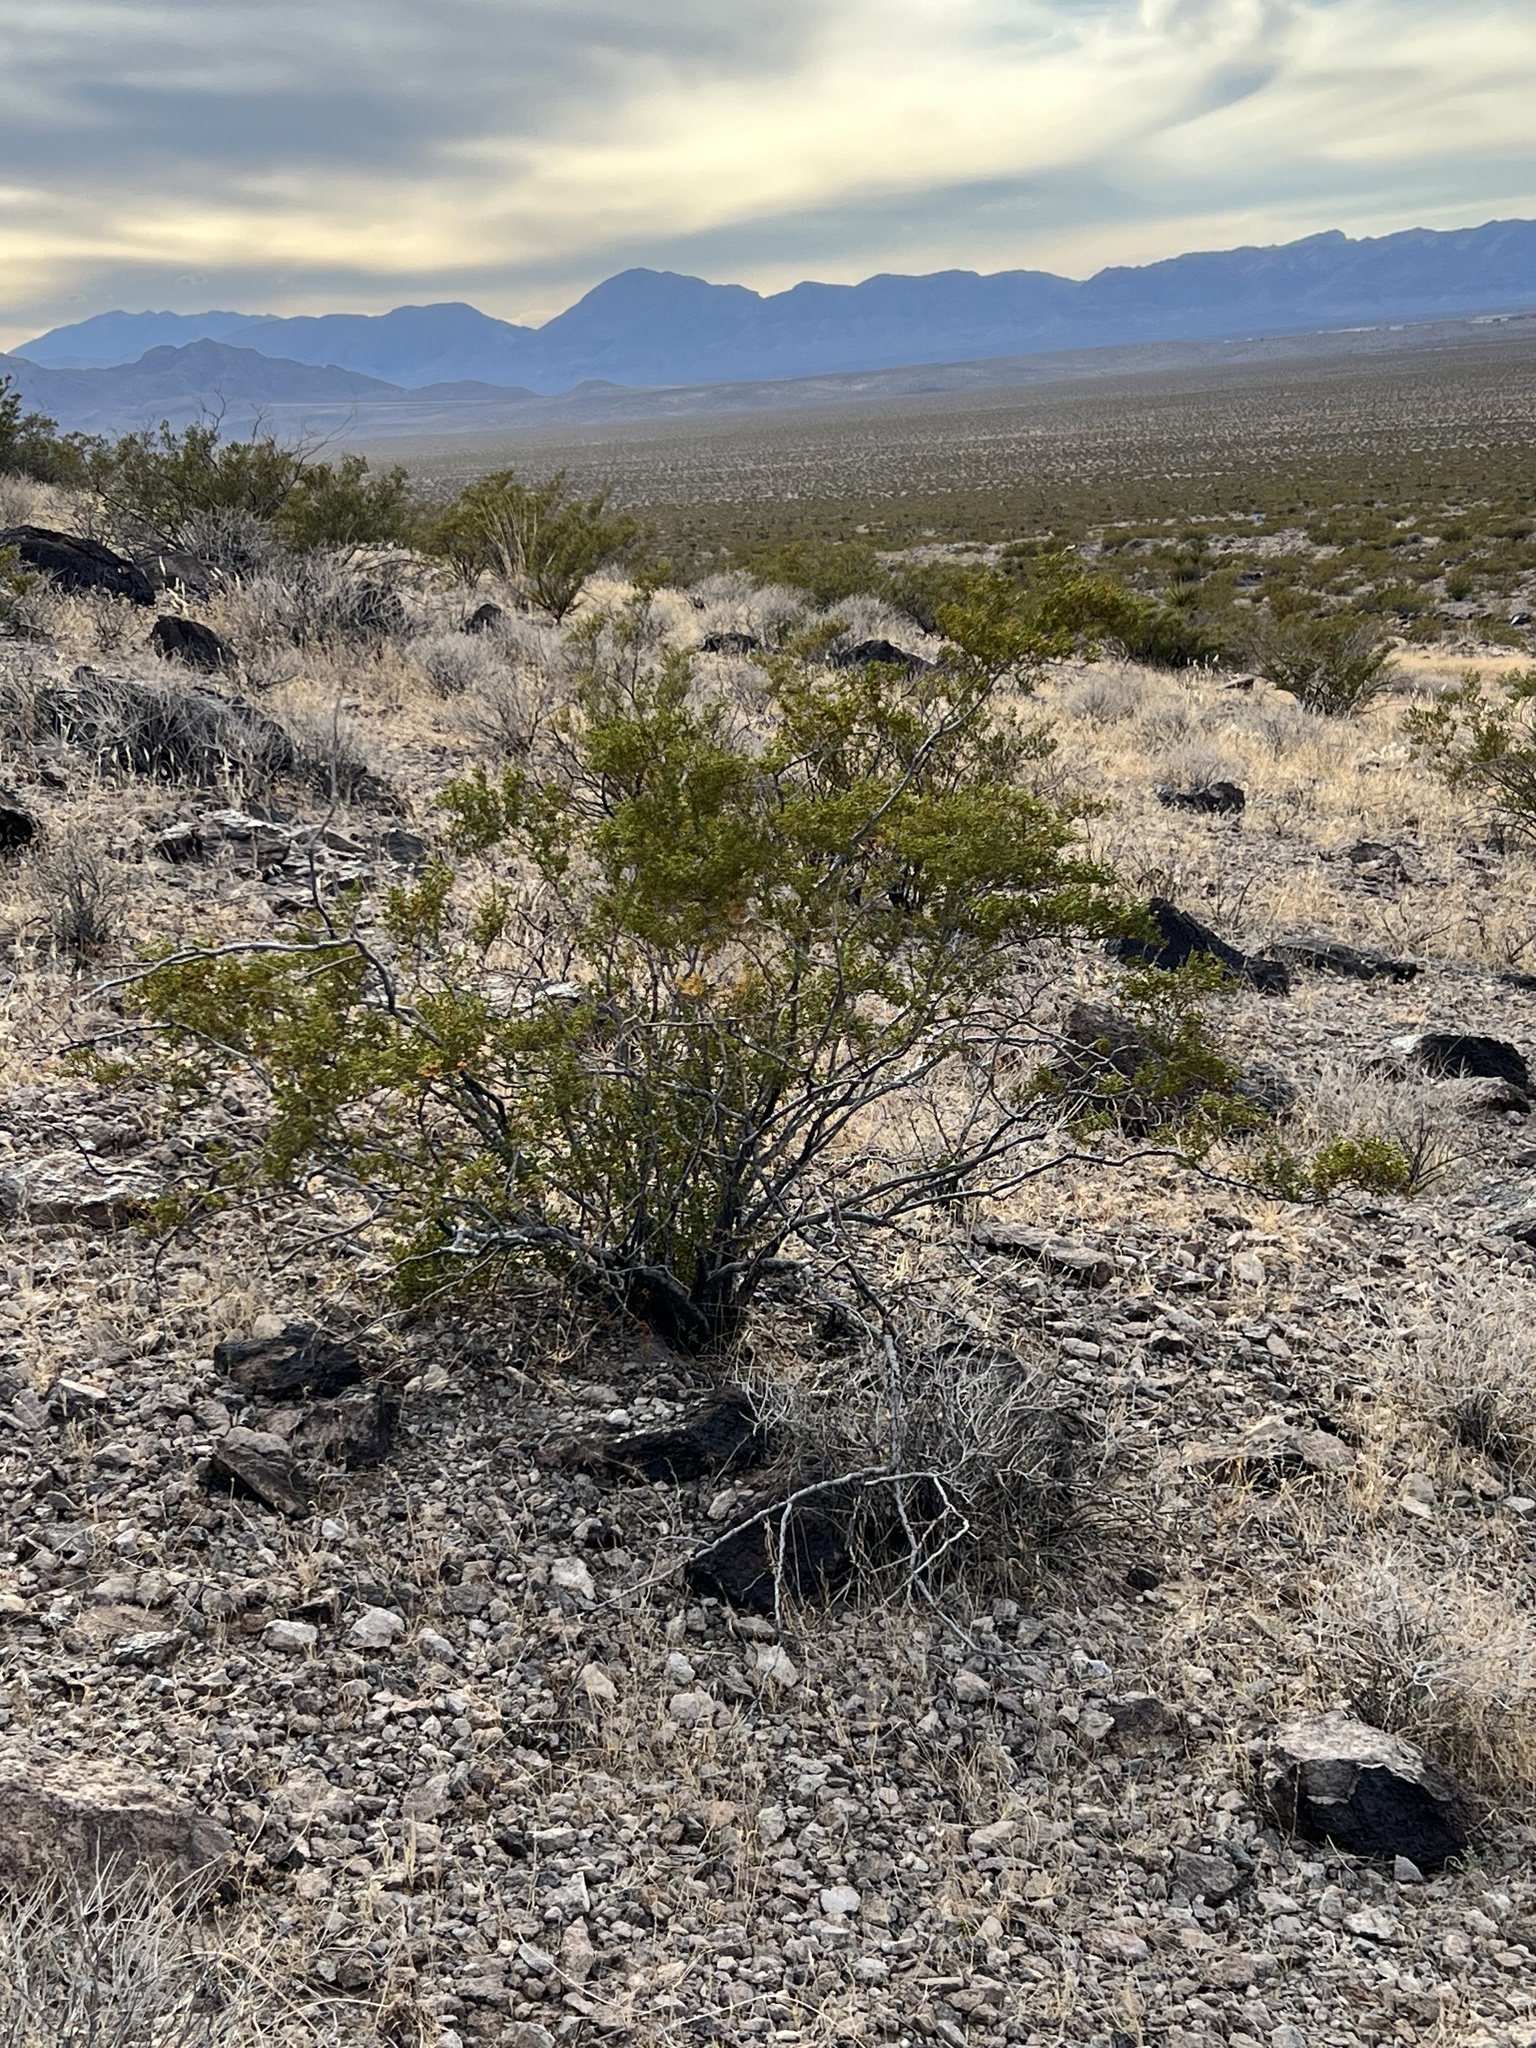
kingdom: Plantae
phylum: Tracheophyta
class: Magnoliopsida
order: Zygophyllales
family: Zygophyllaceae
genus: Larrea
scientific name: Larrea tridentata
